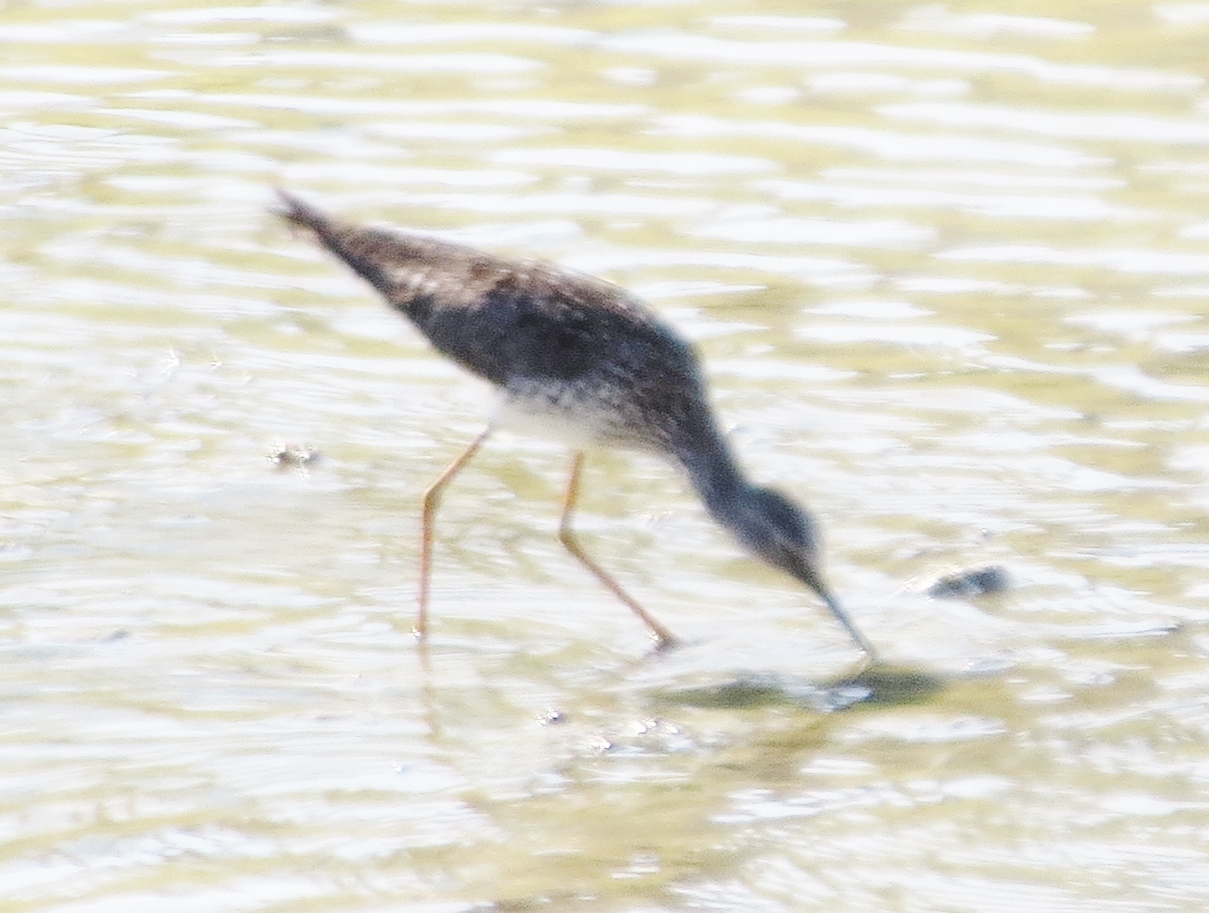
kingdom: Animalia
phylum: Chordata
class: Aves
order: Charadriiformes
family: Scolopacidae
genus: Tringa
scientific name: Tringa flavipes
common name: Lesser yellowlegs
